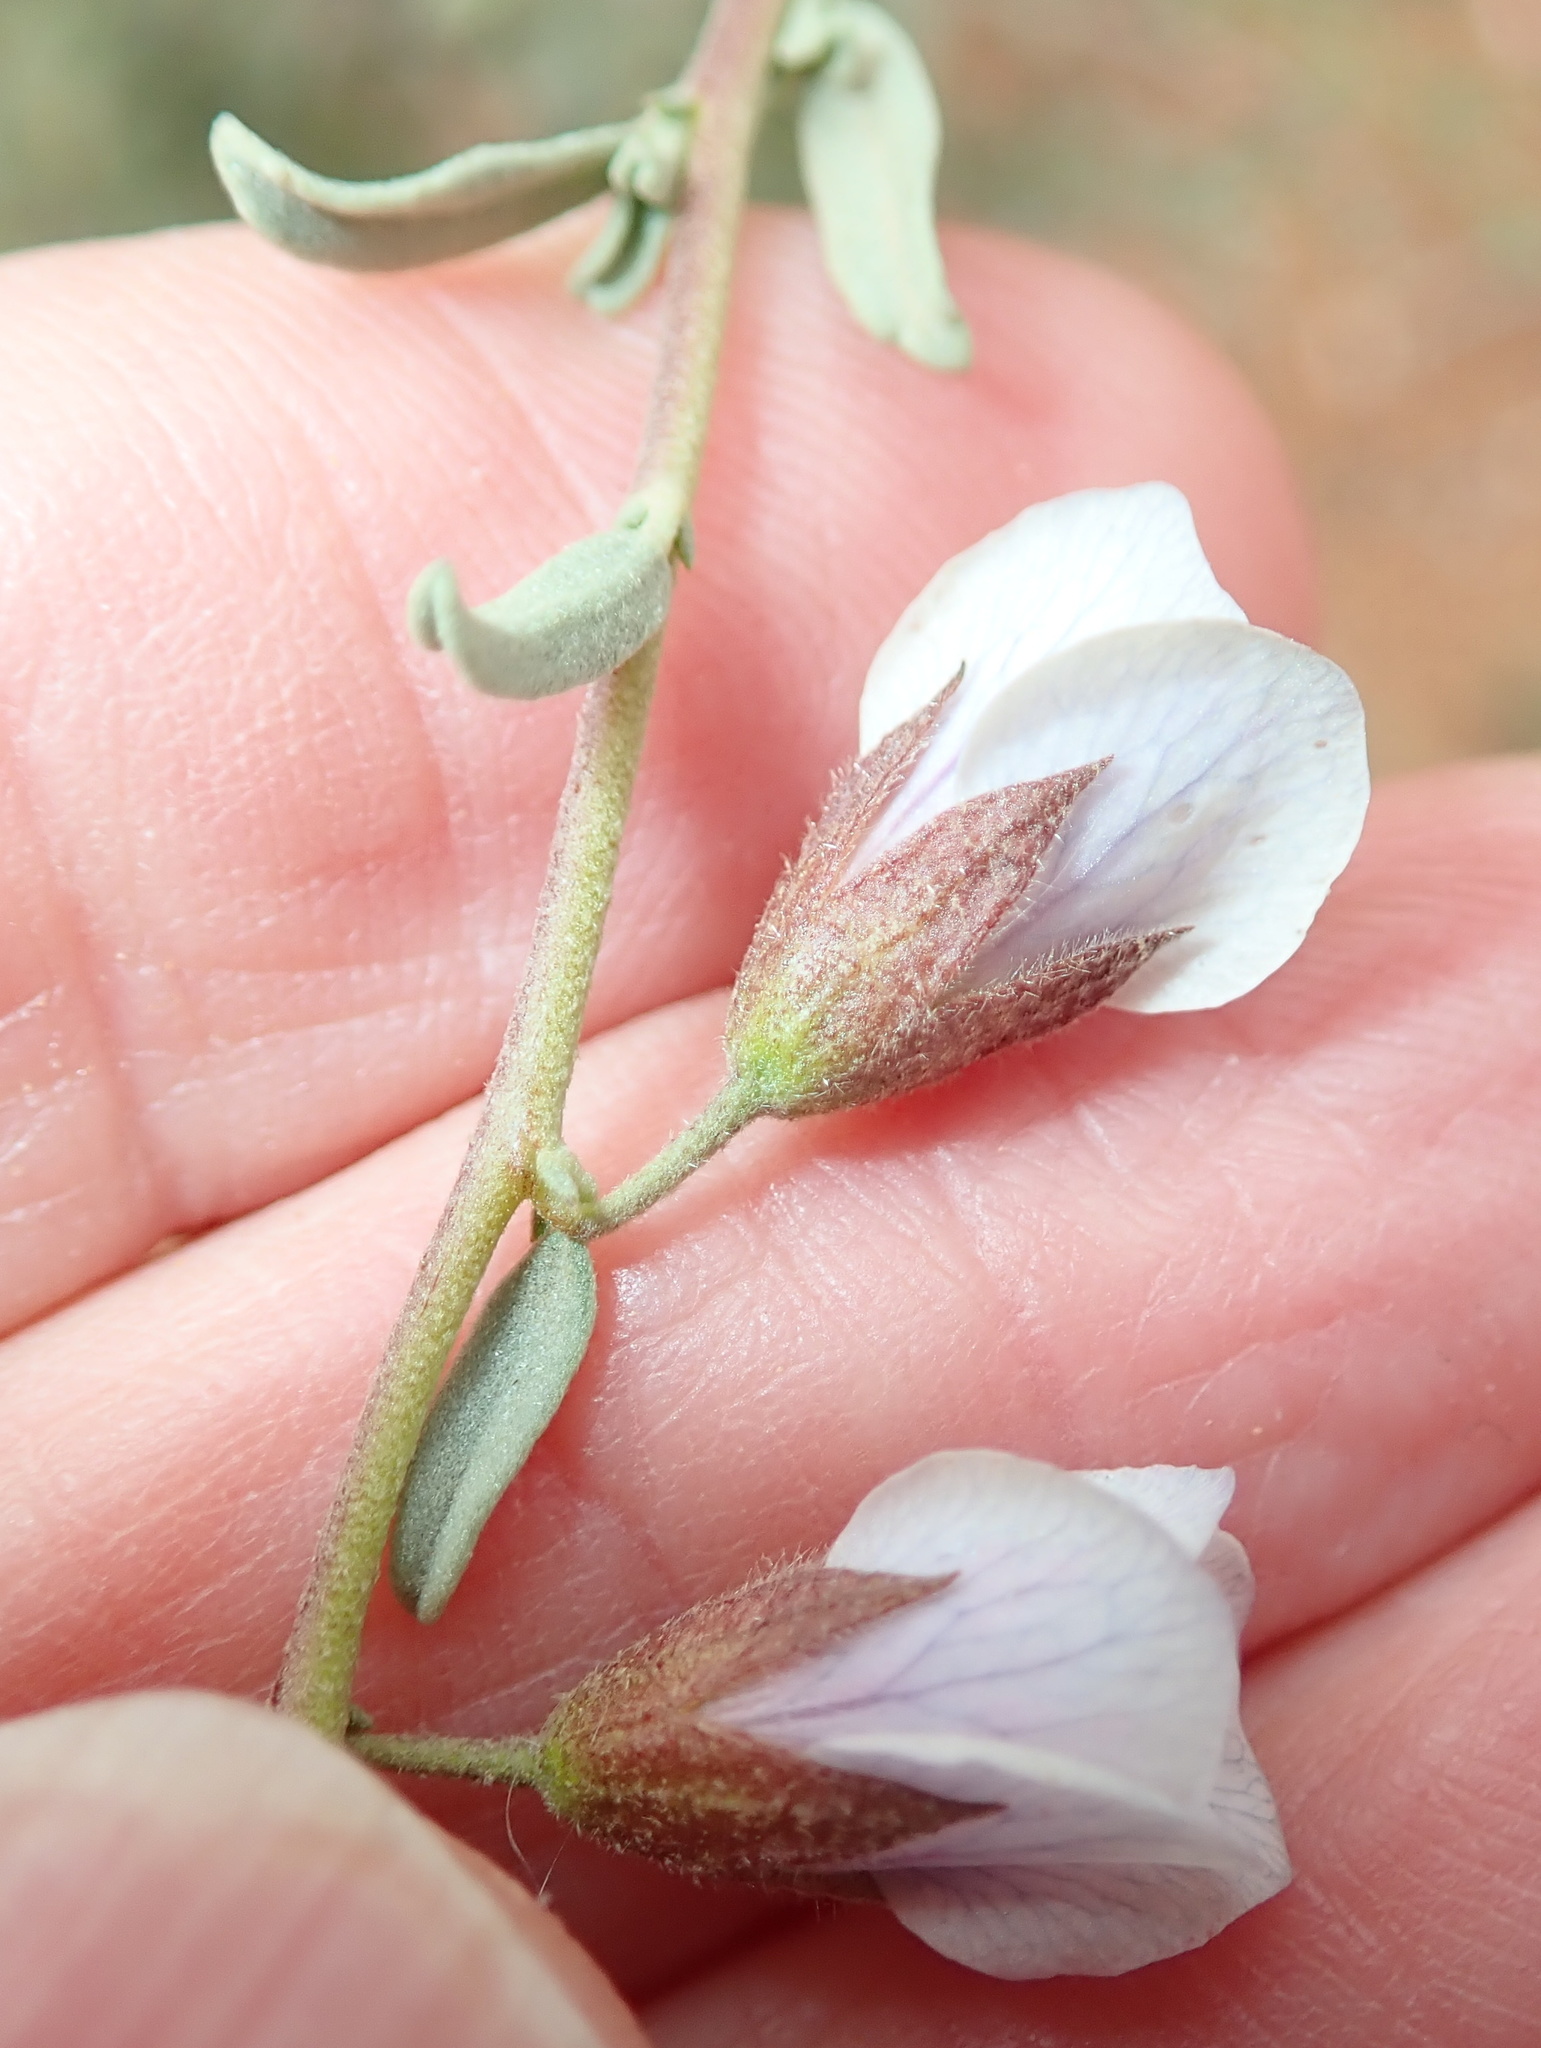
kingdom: Plantae
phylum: Tracheophyta
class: Magnoliopsida
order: Malvales
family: Malvaceae
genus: Hermannia
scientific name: Hermannia trifurca
